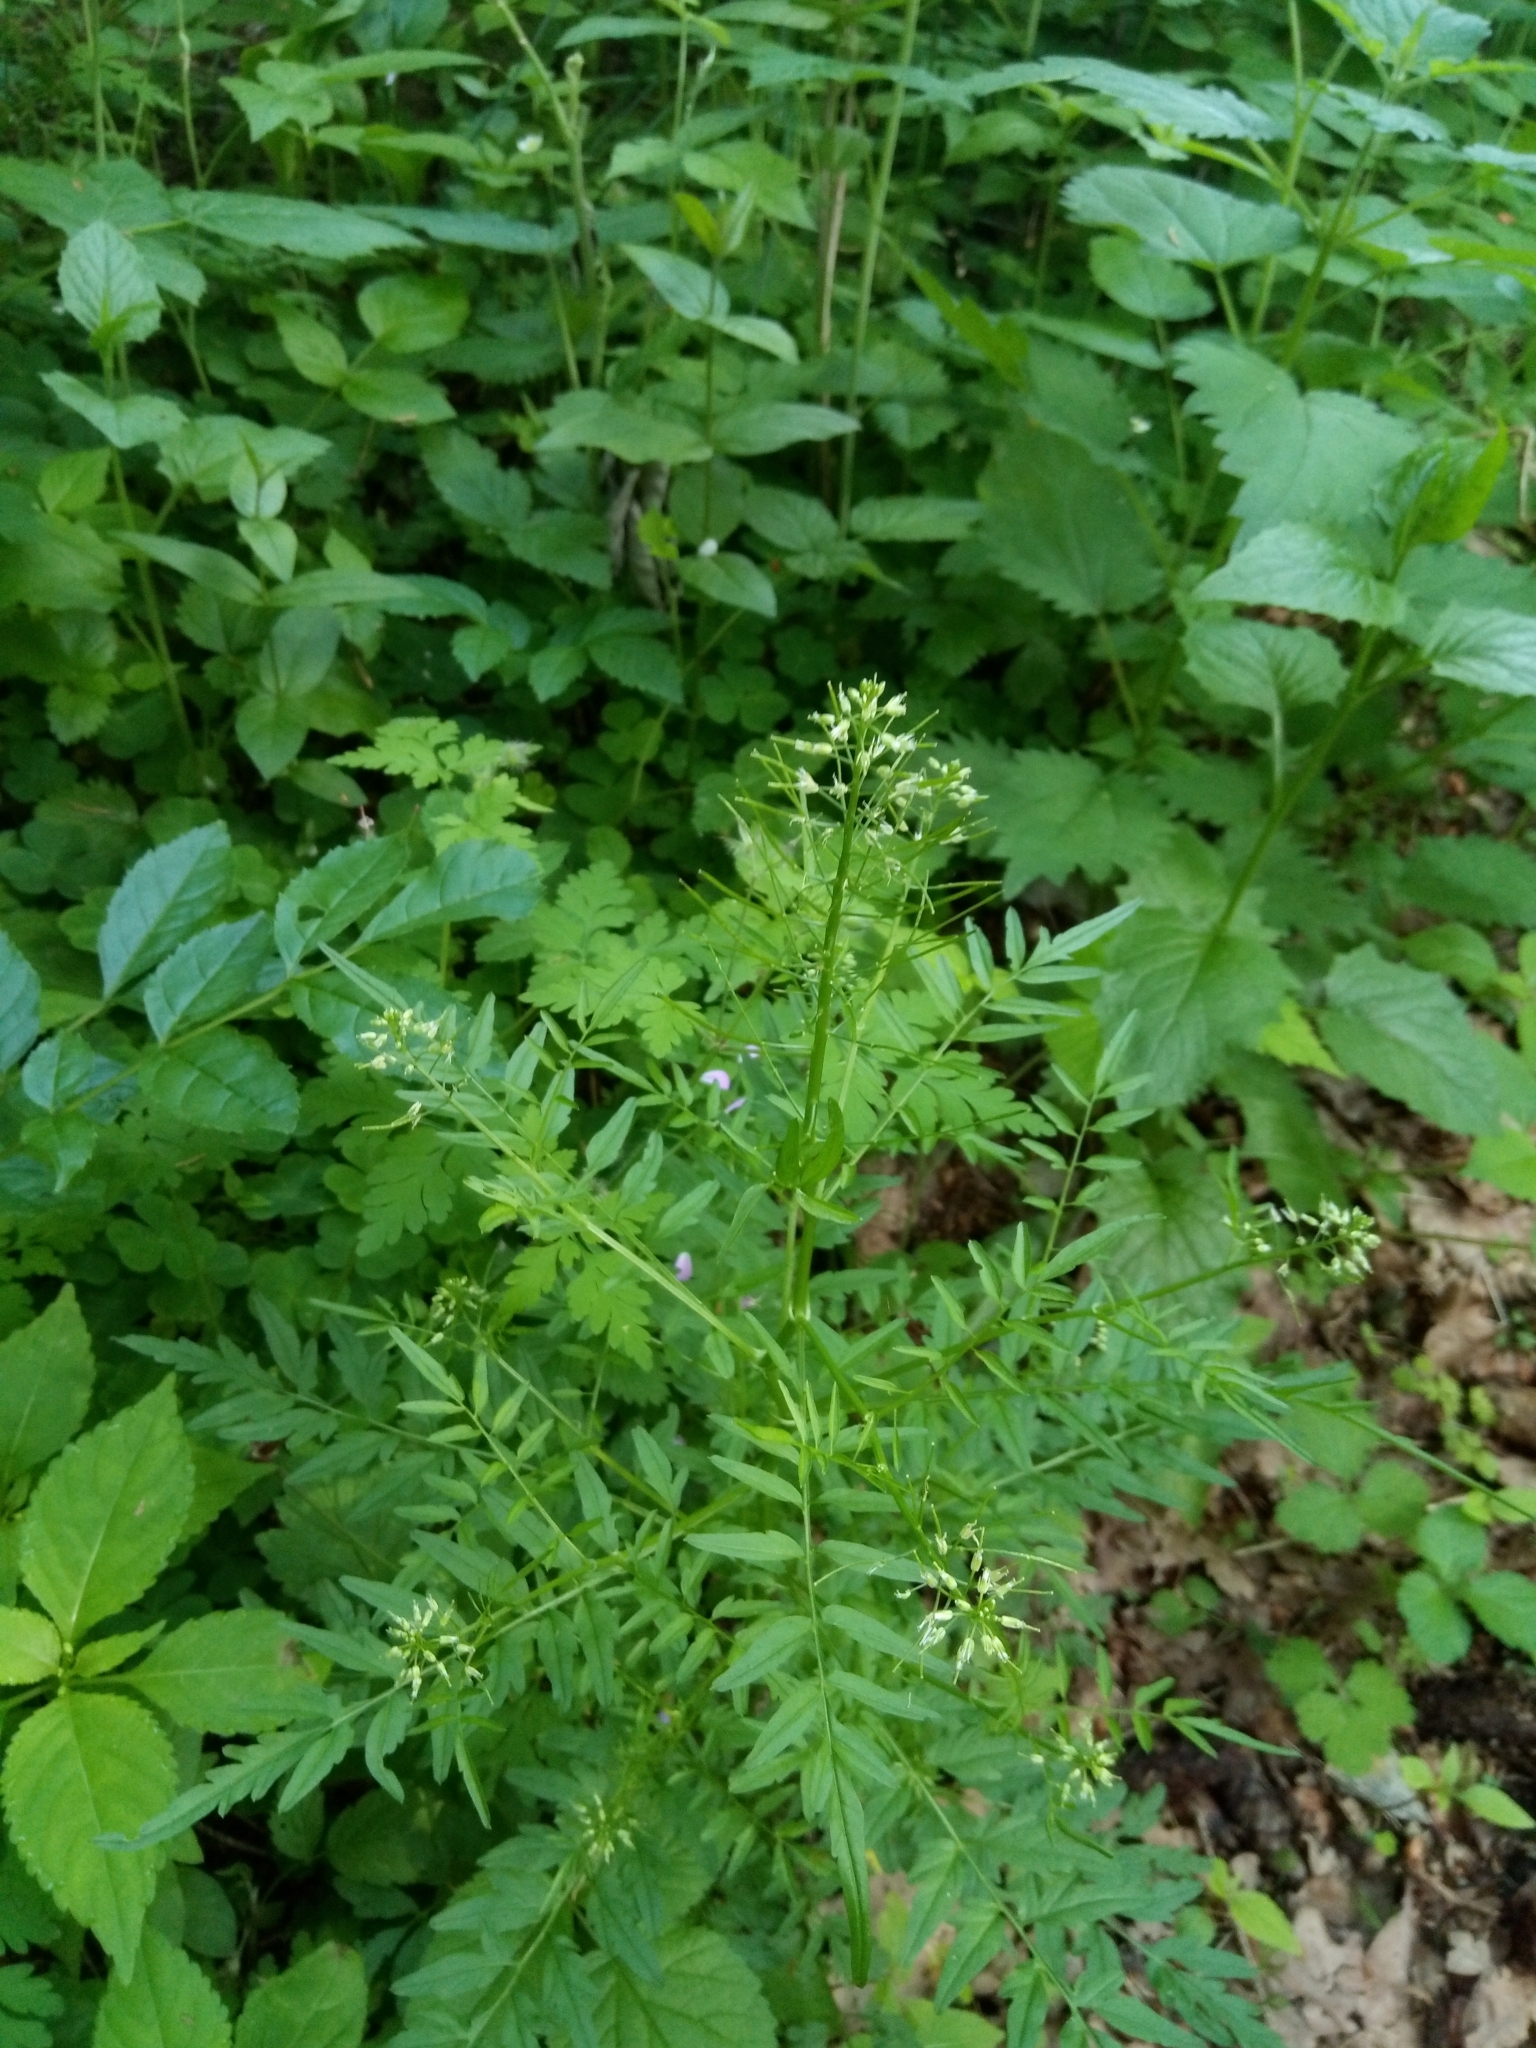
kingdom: Plantae
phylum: Tracheophyta
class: Magnoliopsida
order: Brassicales
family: Brassicaceae
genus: Cardamine
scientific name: Cardamine impatiens
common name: Narrow-leaved bitter-cress
